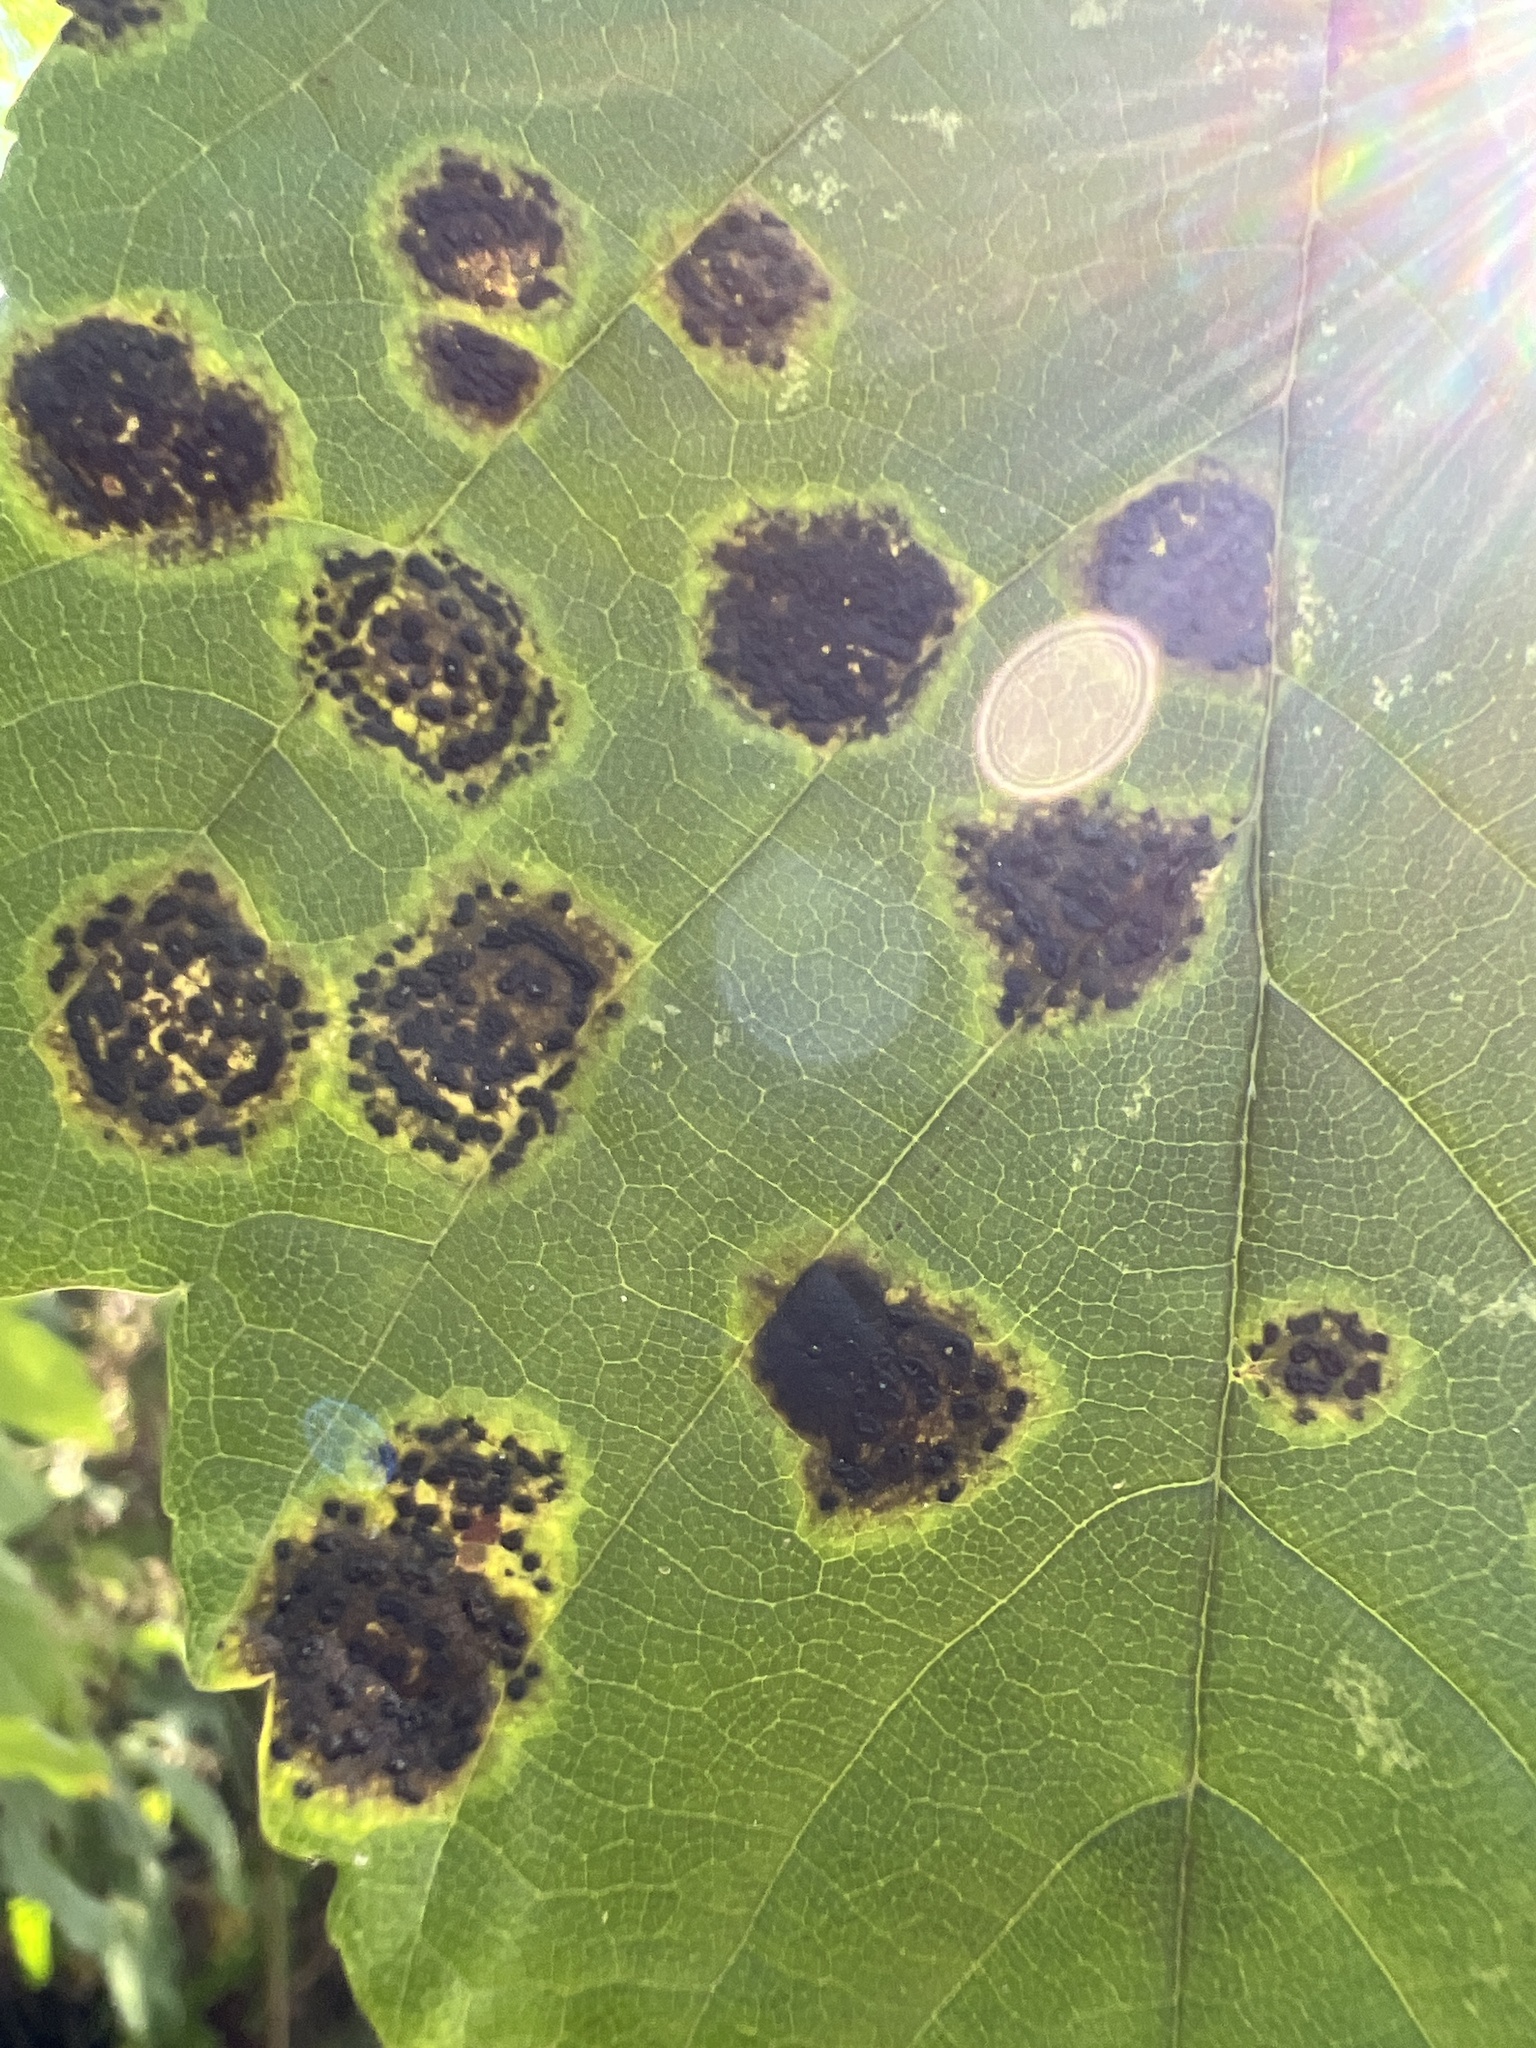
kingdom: Fungi
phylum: Ascomycota
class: Leotiomycetes
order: Rhytismatales
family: Rhytismataceae
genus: Rhytisma
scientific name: Rhytisma acerinum
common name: European tar spot
